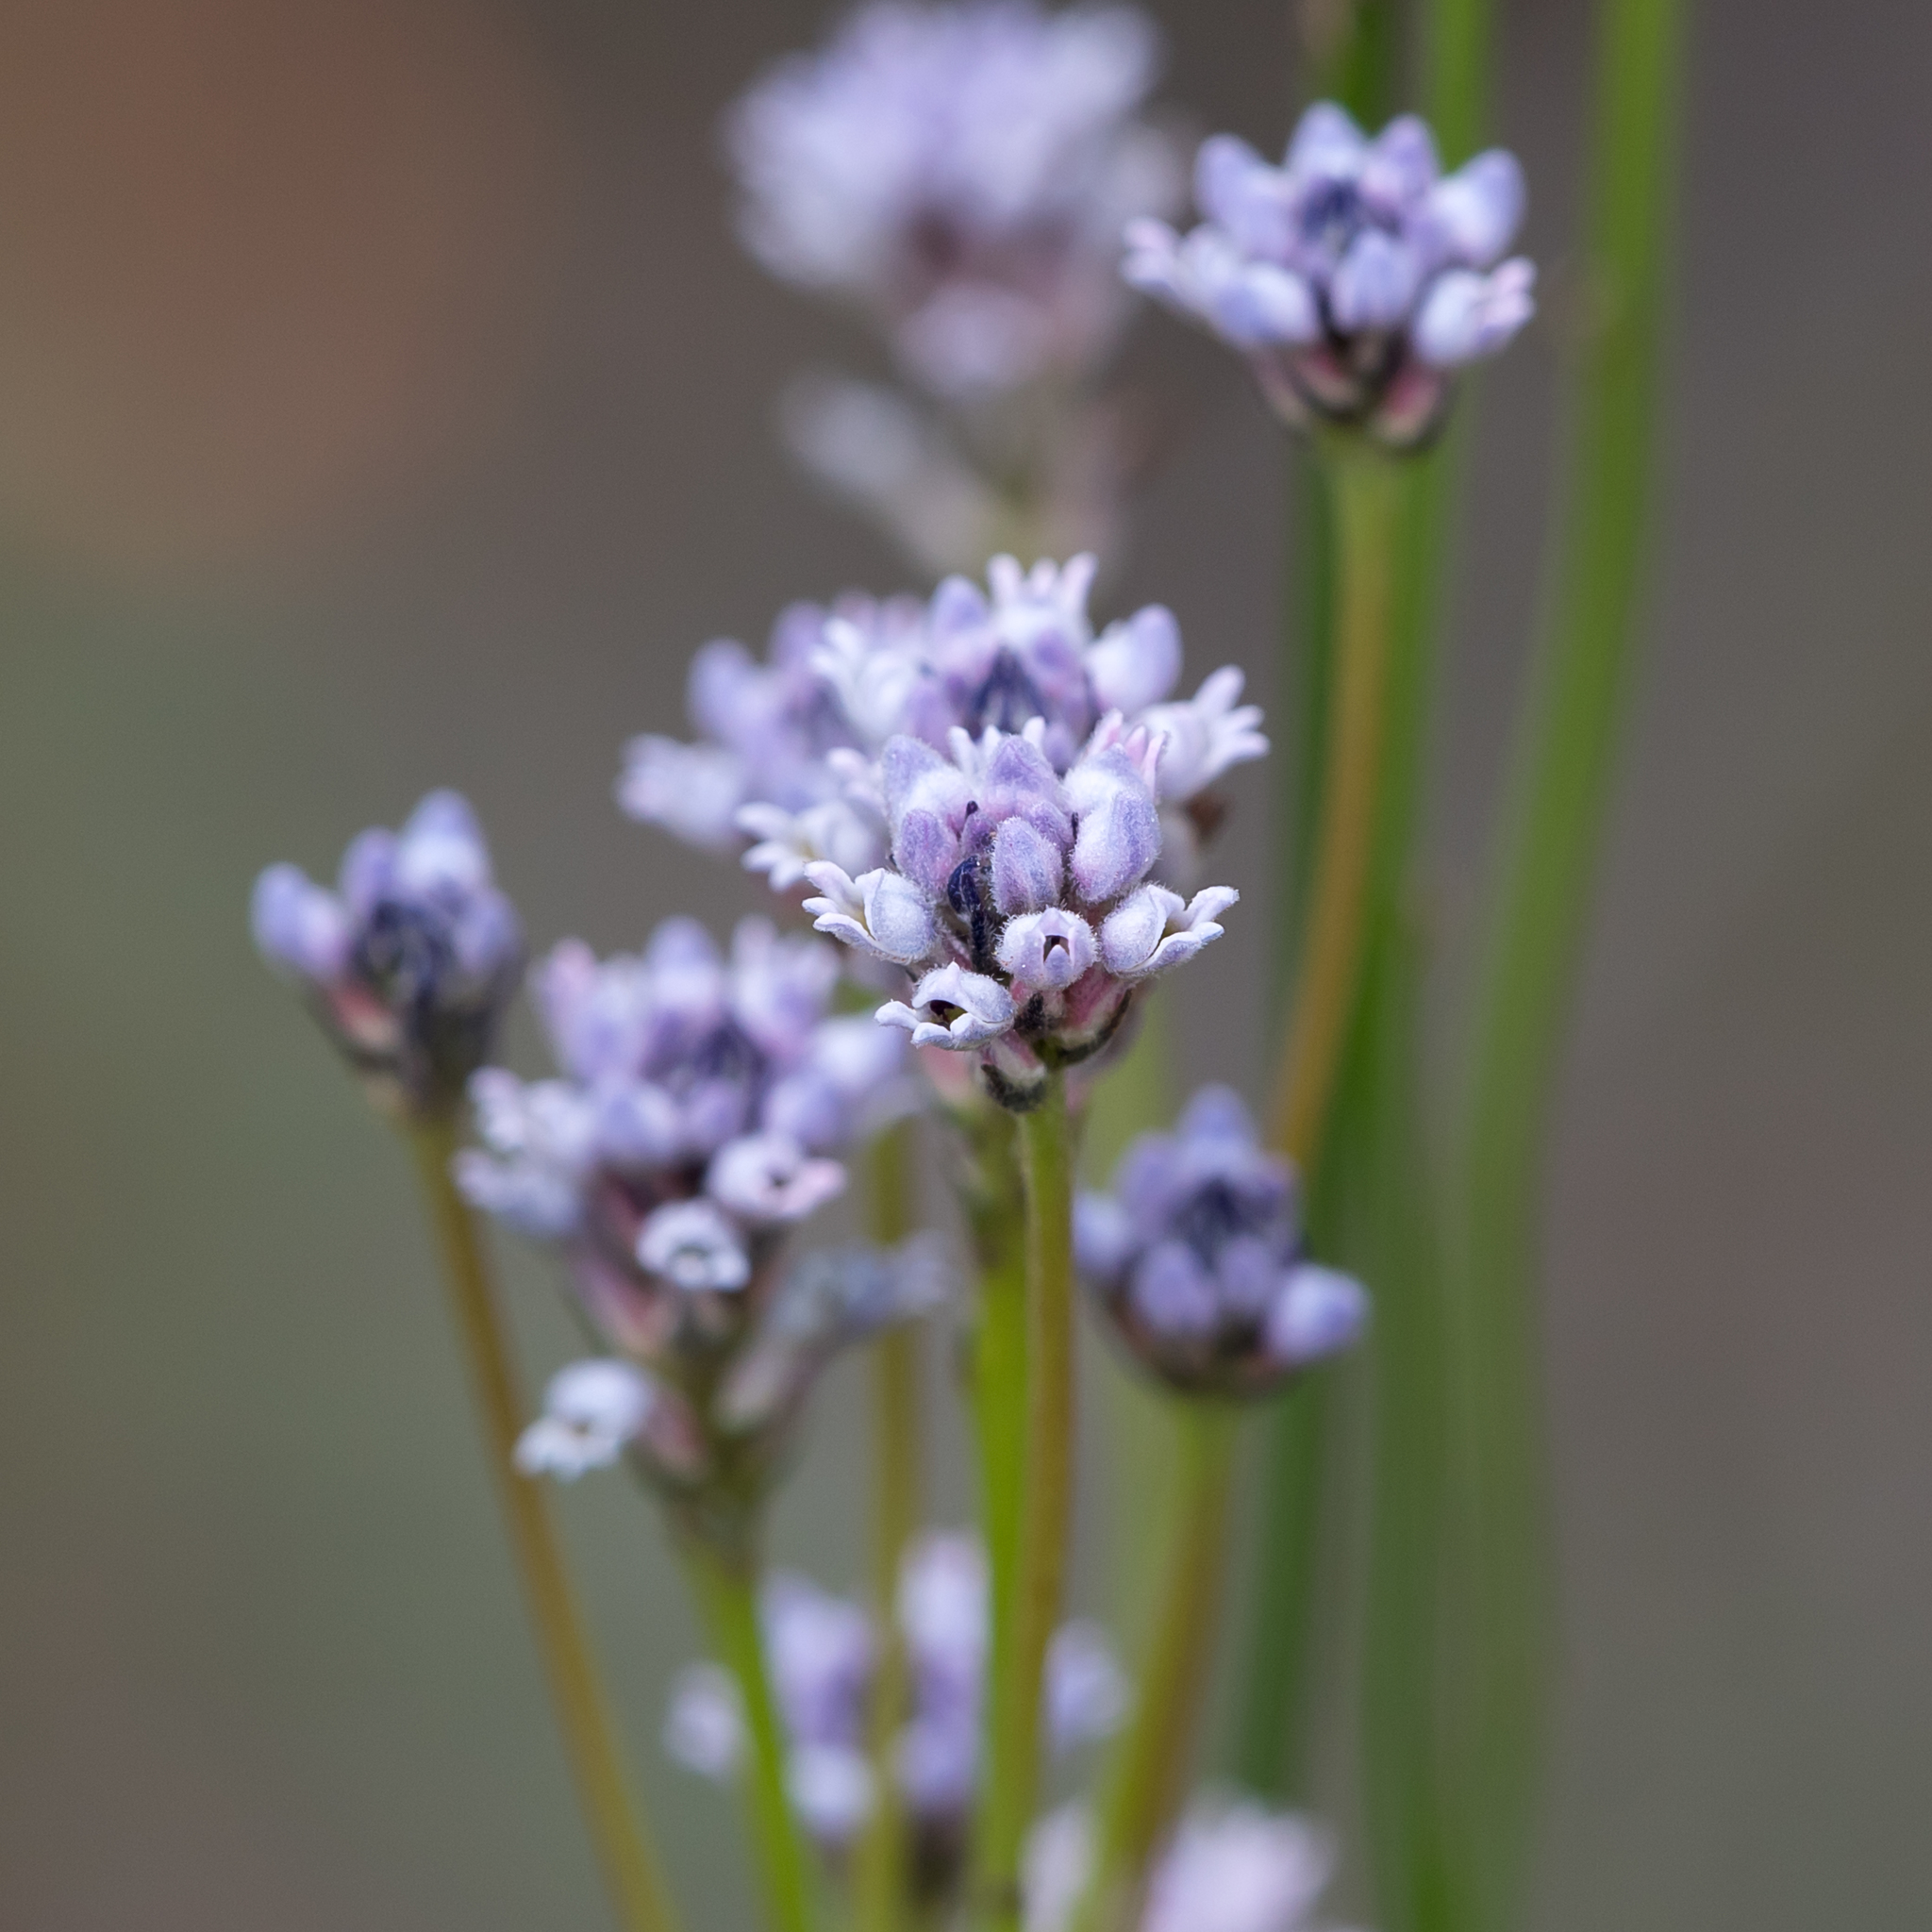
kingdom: Plantae
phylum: Tracheophyta
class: Magnoliopsida
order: Proteales
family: Proteaceae
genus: Conospermum
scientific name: Conospermum patens
